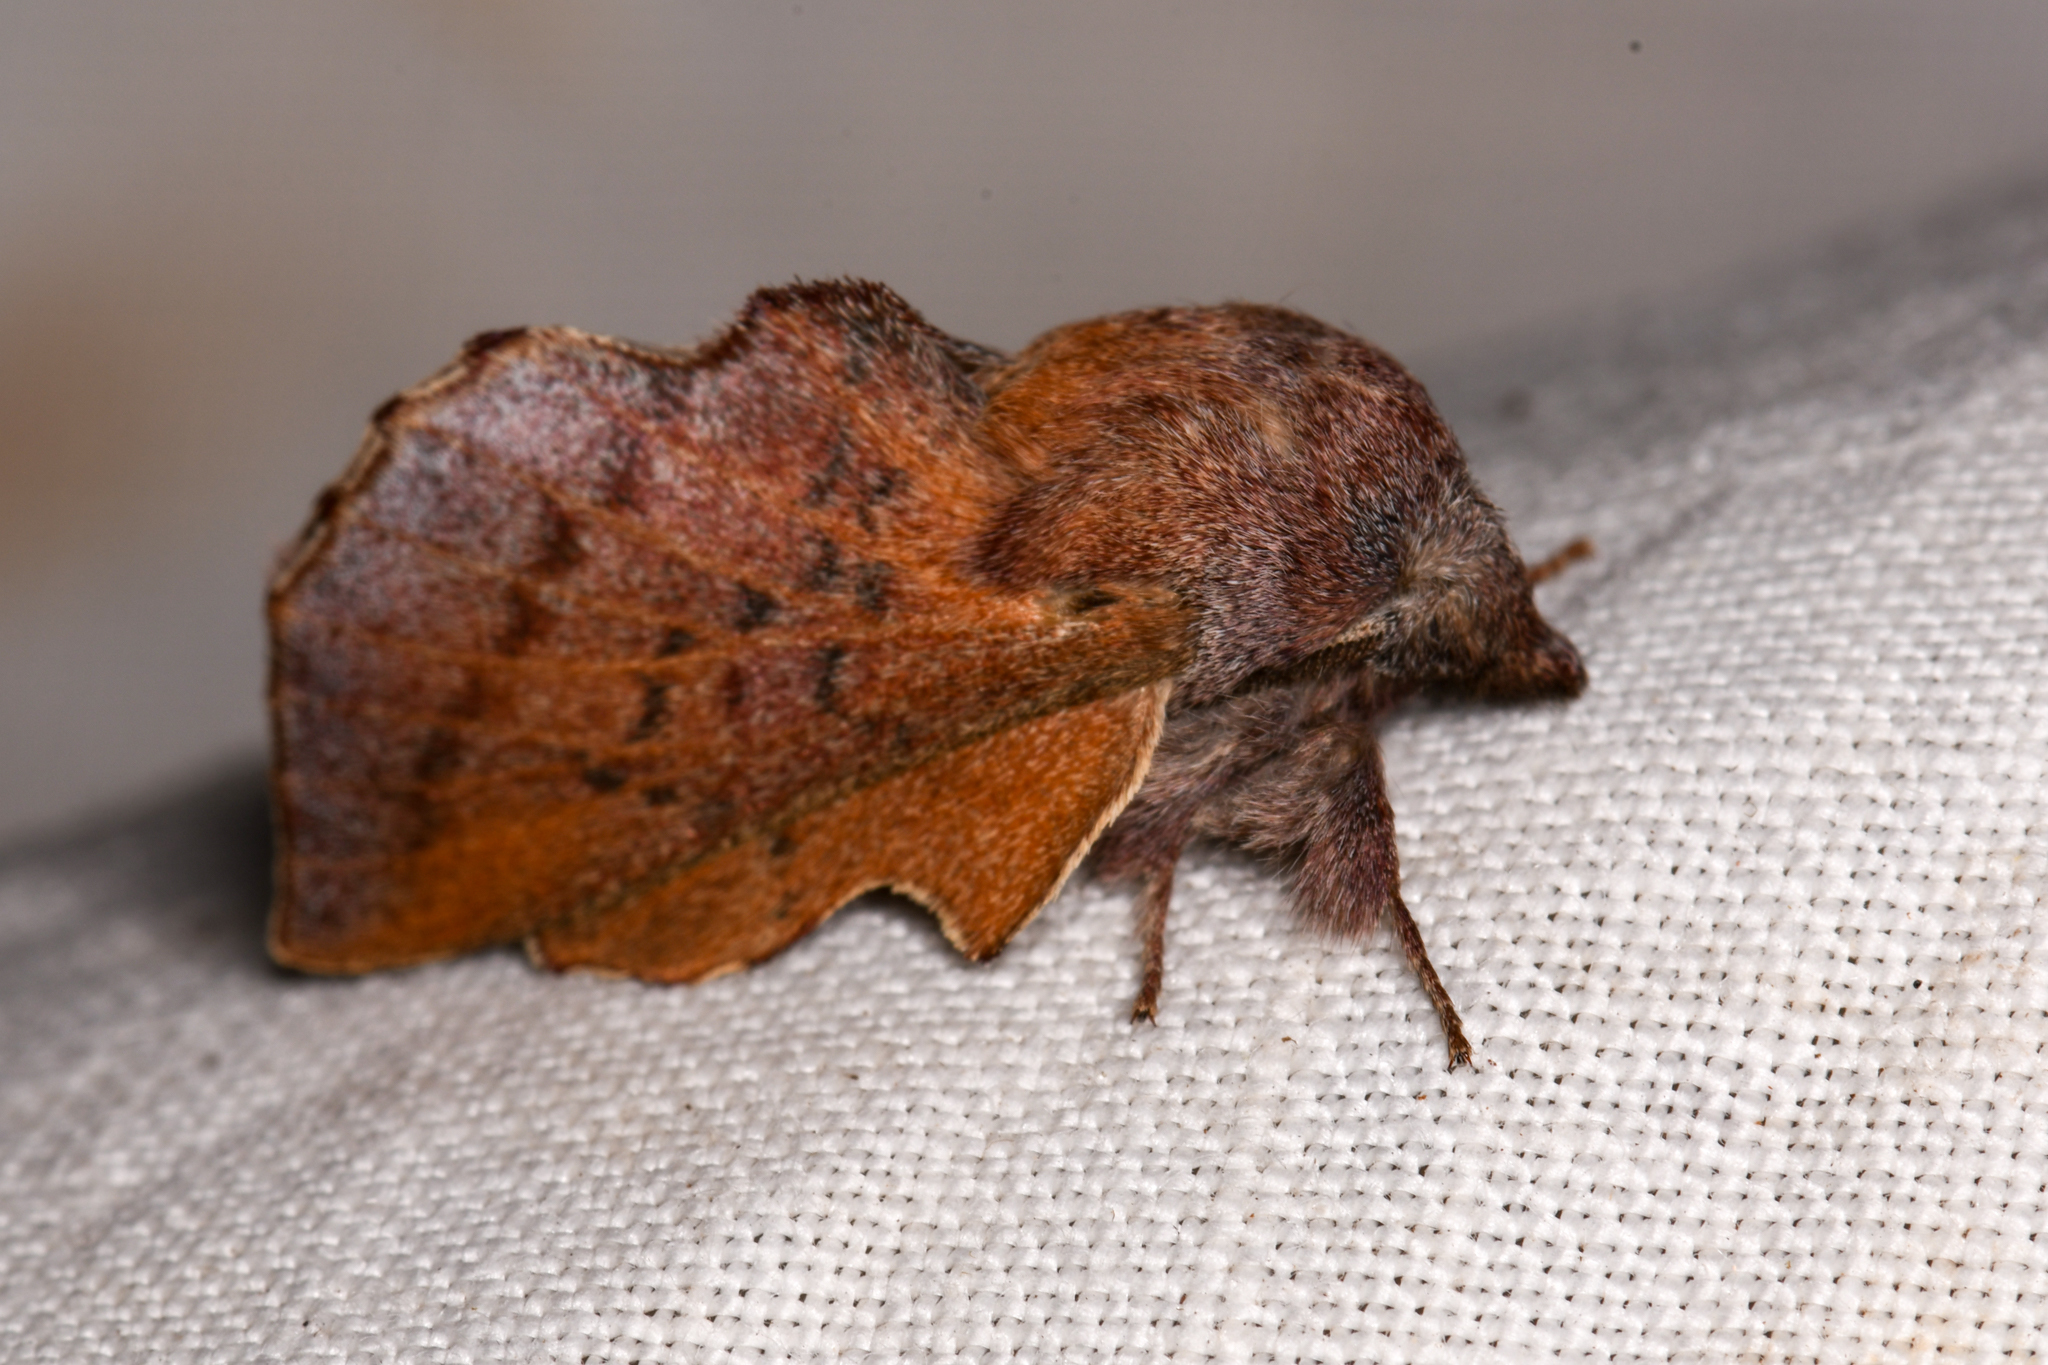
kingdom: Animalia
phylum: Arthropoda
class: Insecta
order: Lepidoptera
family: Lasiocampidae
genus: Phyllodesma
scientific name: Phyllodesma americana
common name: American lappet moth
